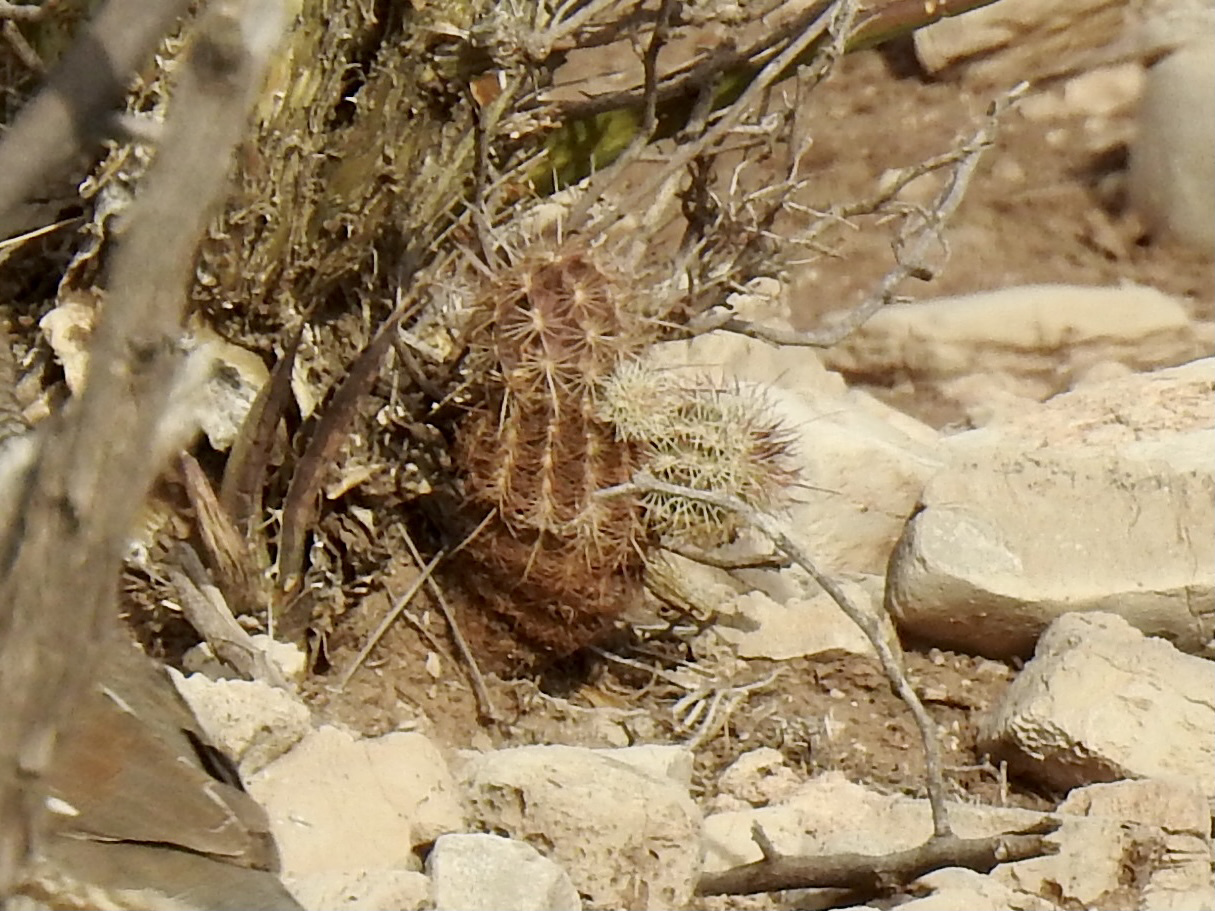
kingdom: Plantae
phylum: Tracheophyta
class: Magnoliopsida
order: Caryophyllales
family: Cactaceae
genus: Echinocereus
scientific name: Echinocereus viridiflorus
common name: Nylon hedgehog cactus
